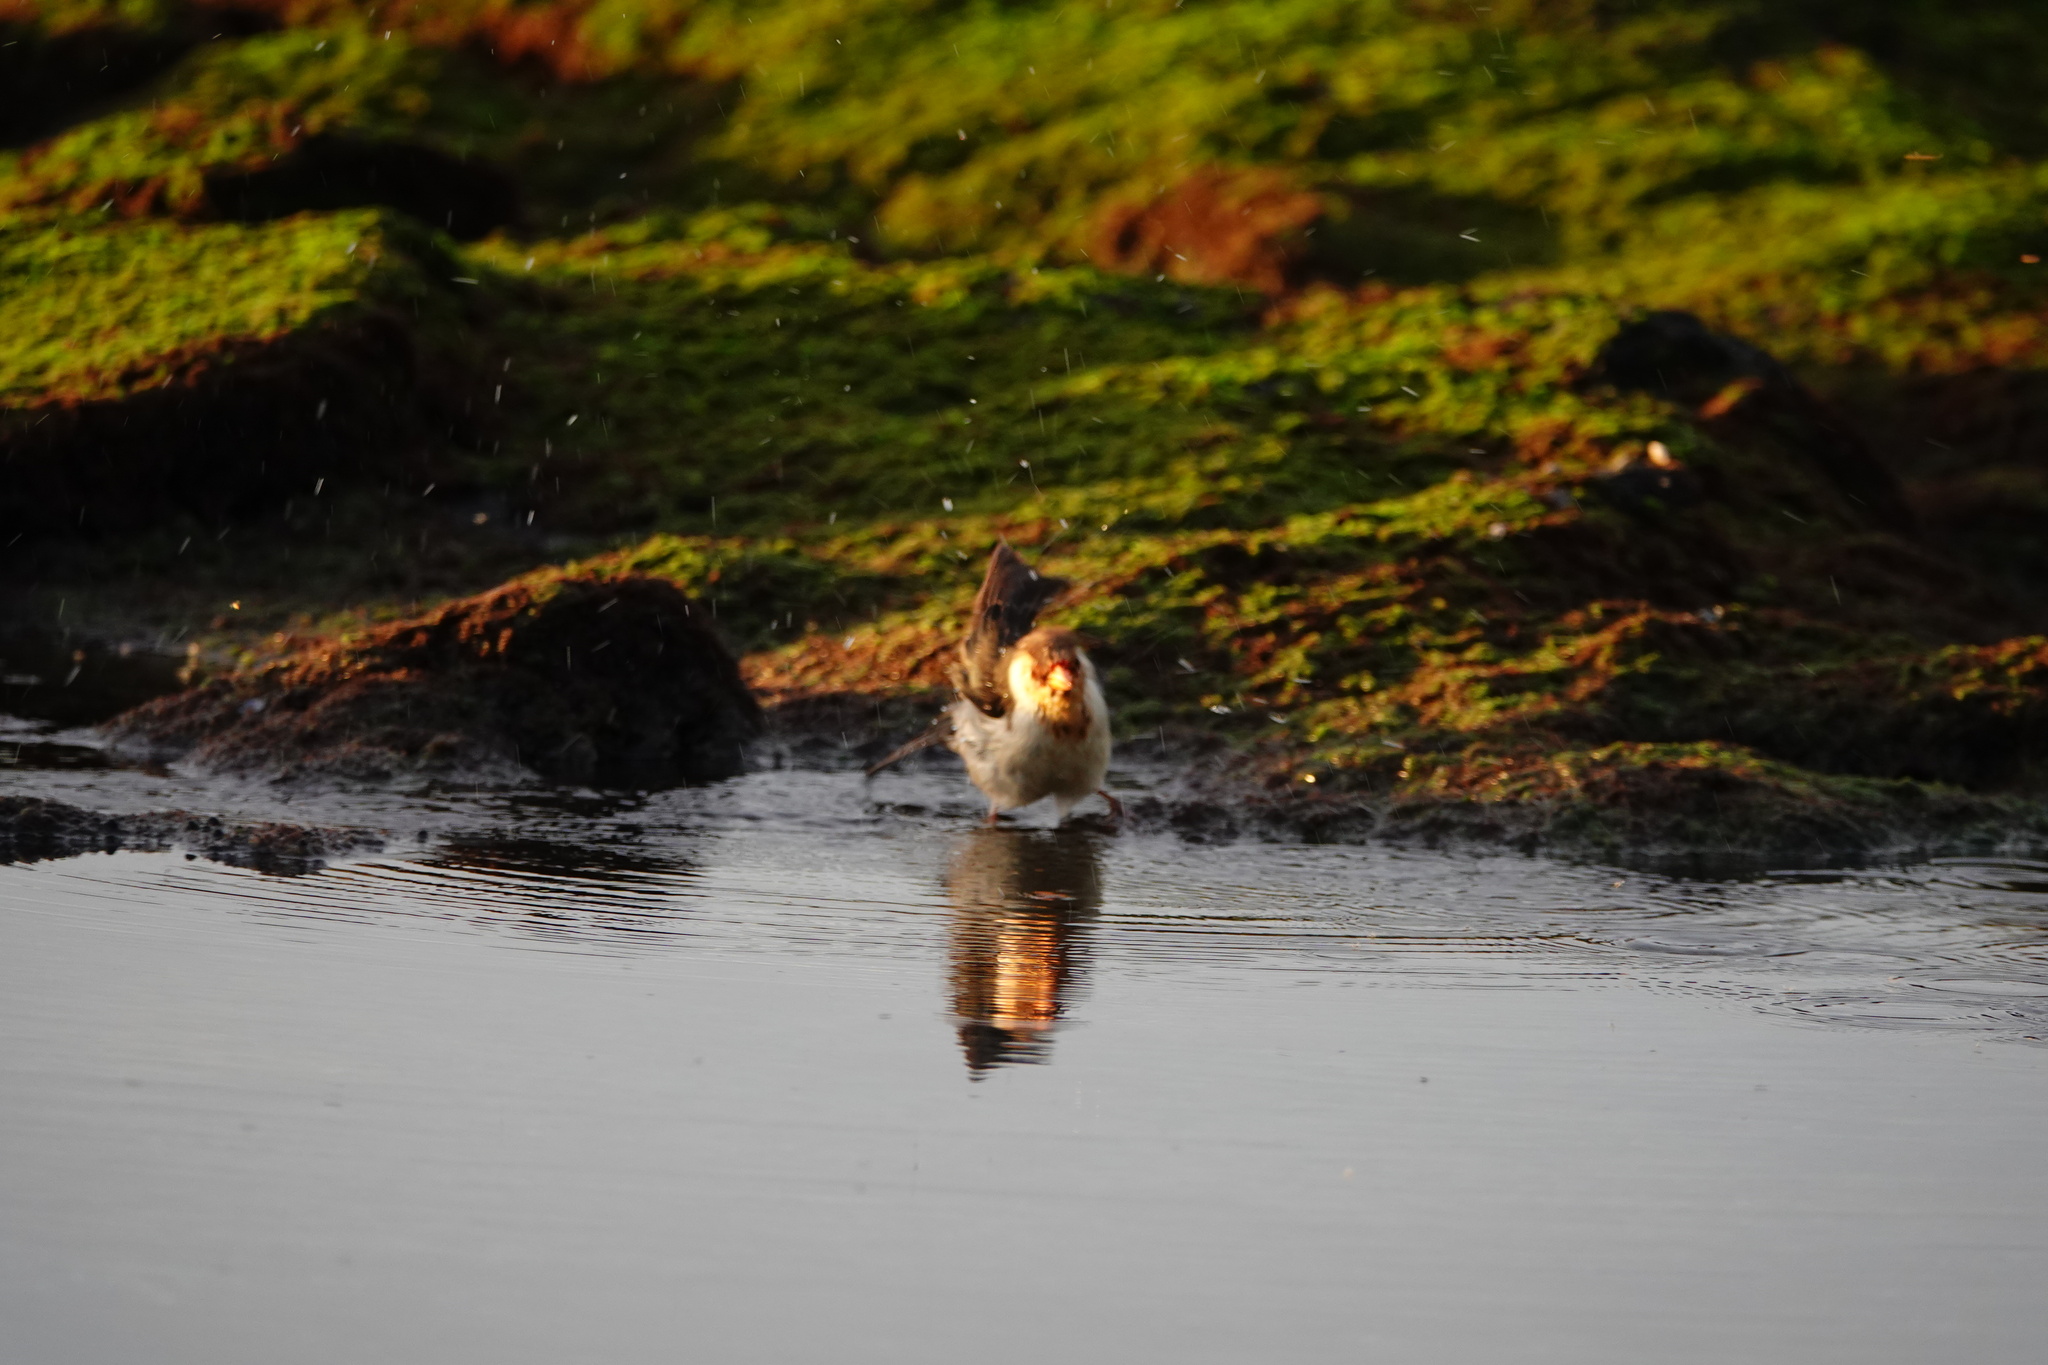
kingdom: Animalia
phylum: Chordata
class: Aves
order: Passeriformes
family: Thraupidae
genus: Paroaria
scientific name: Paroaria capitata
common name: Yellow-billed cardinal
